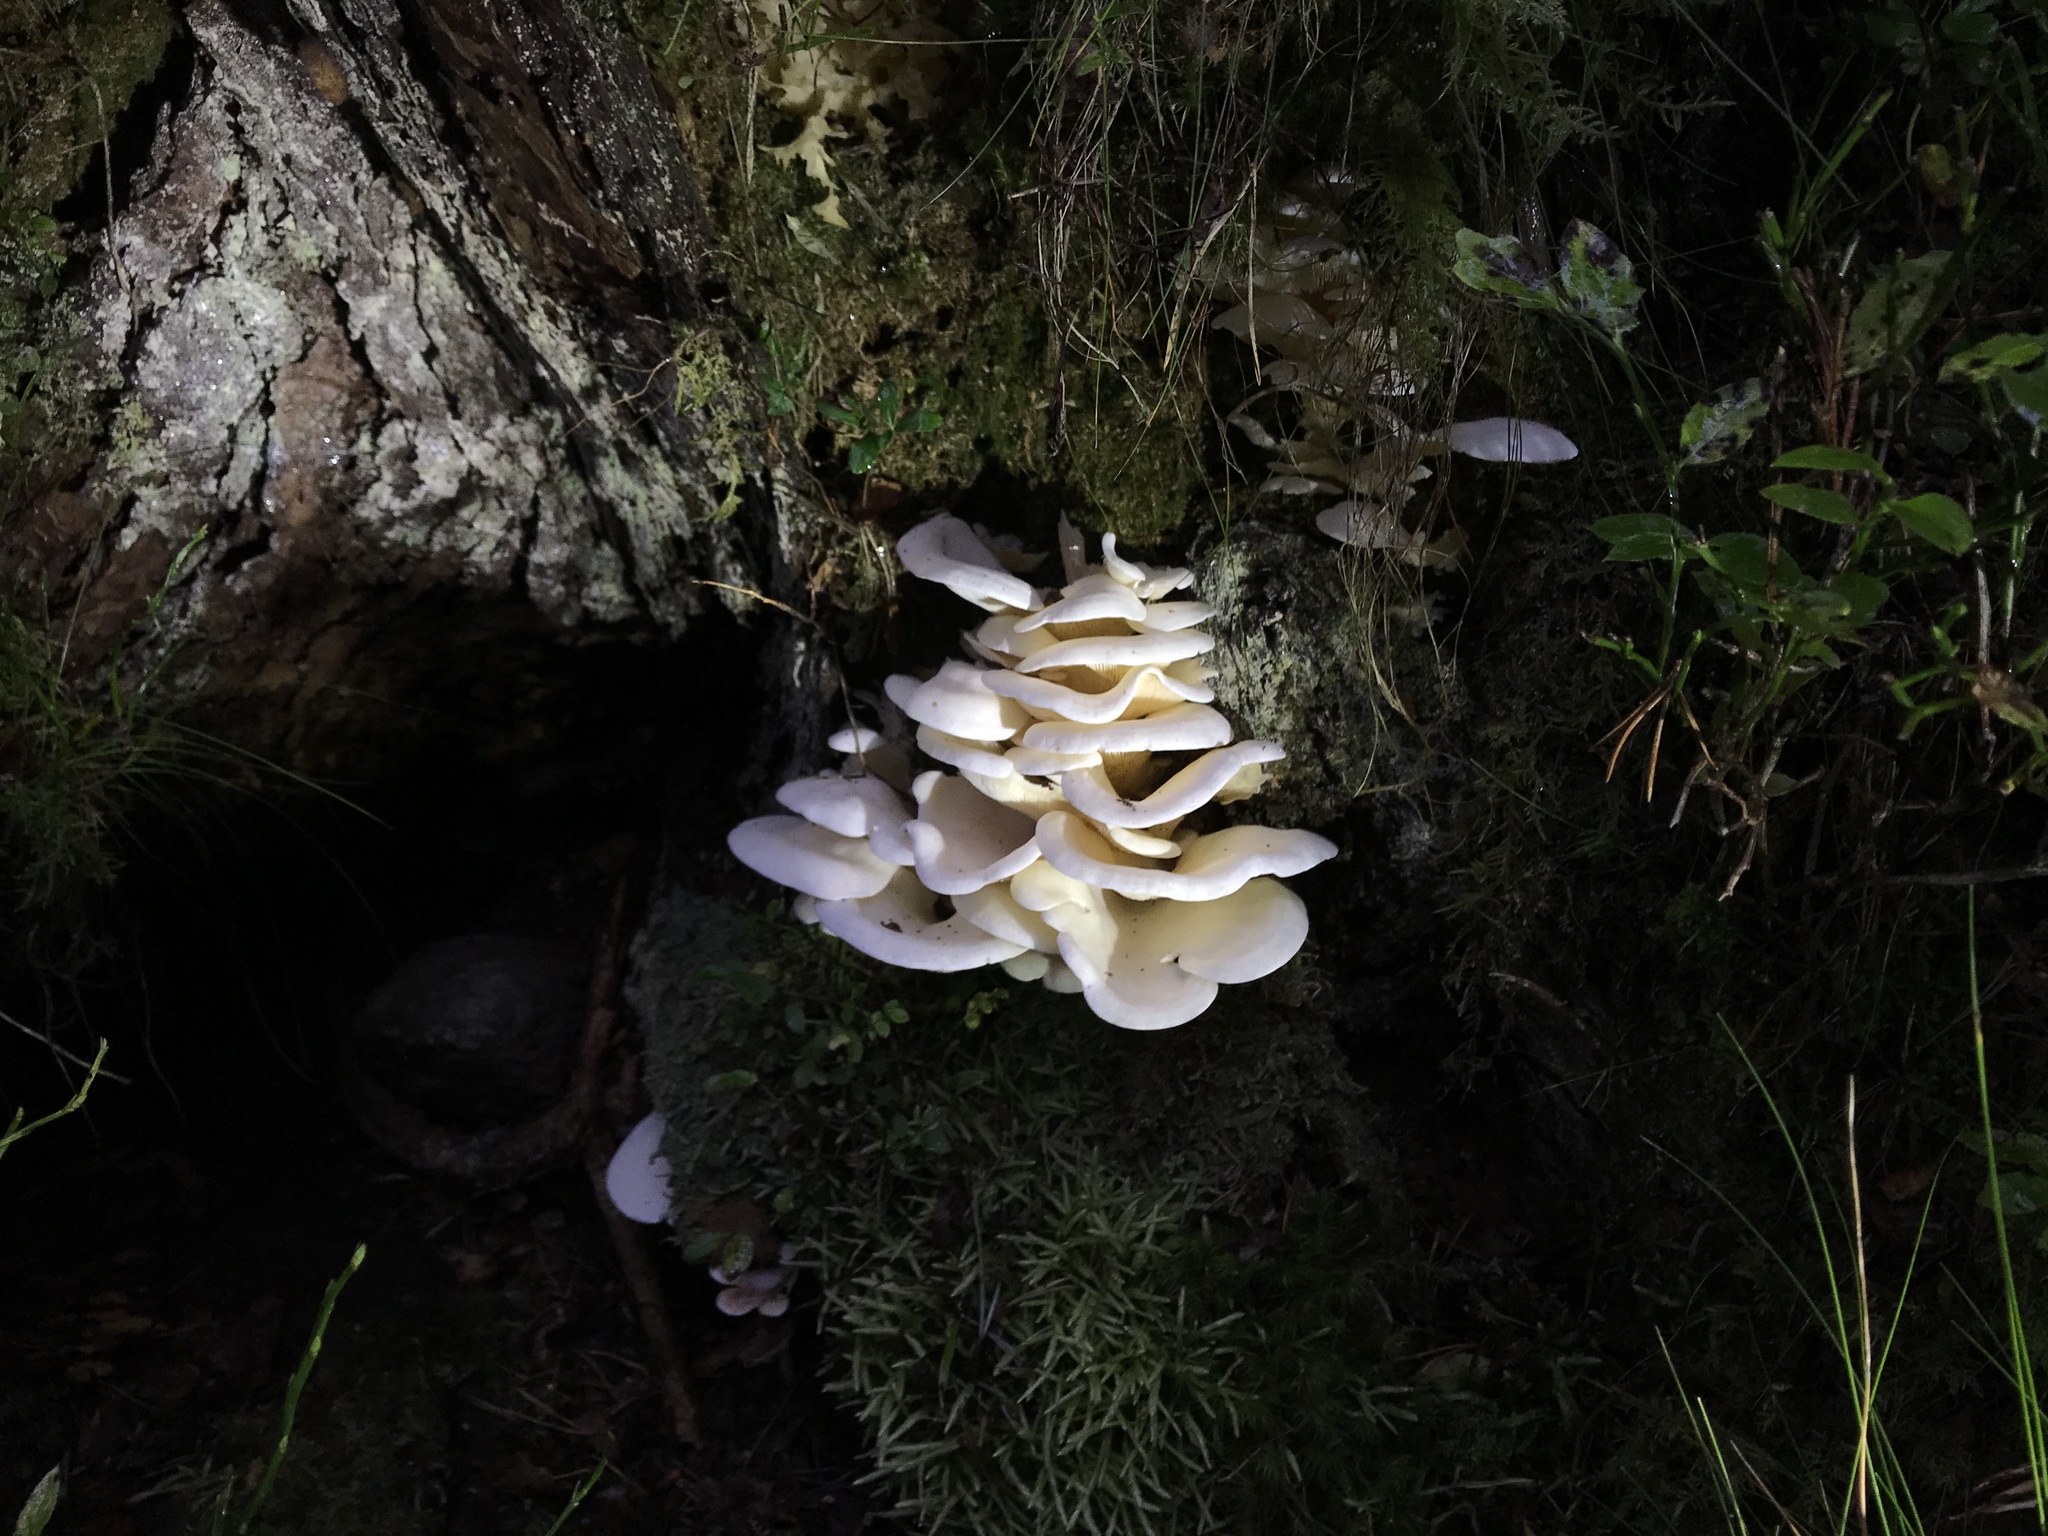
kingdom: Fungi
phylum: Basidiomycota
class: Agaricomycetes
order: Agaricales
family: Marasmiaceae
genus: Pleurocybella
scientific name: Pleurocybella porrigens
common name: Angel's wings
